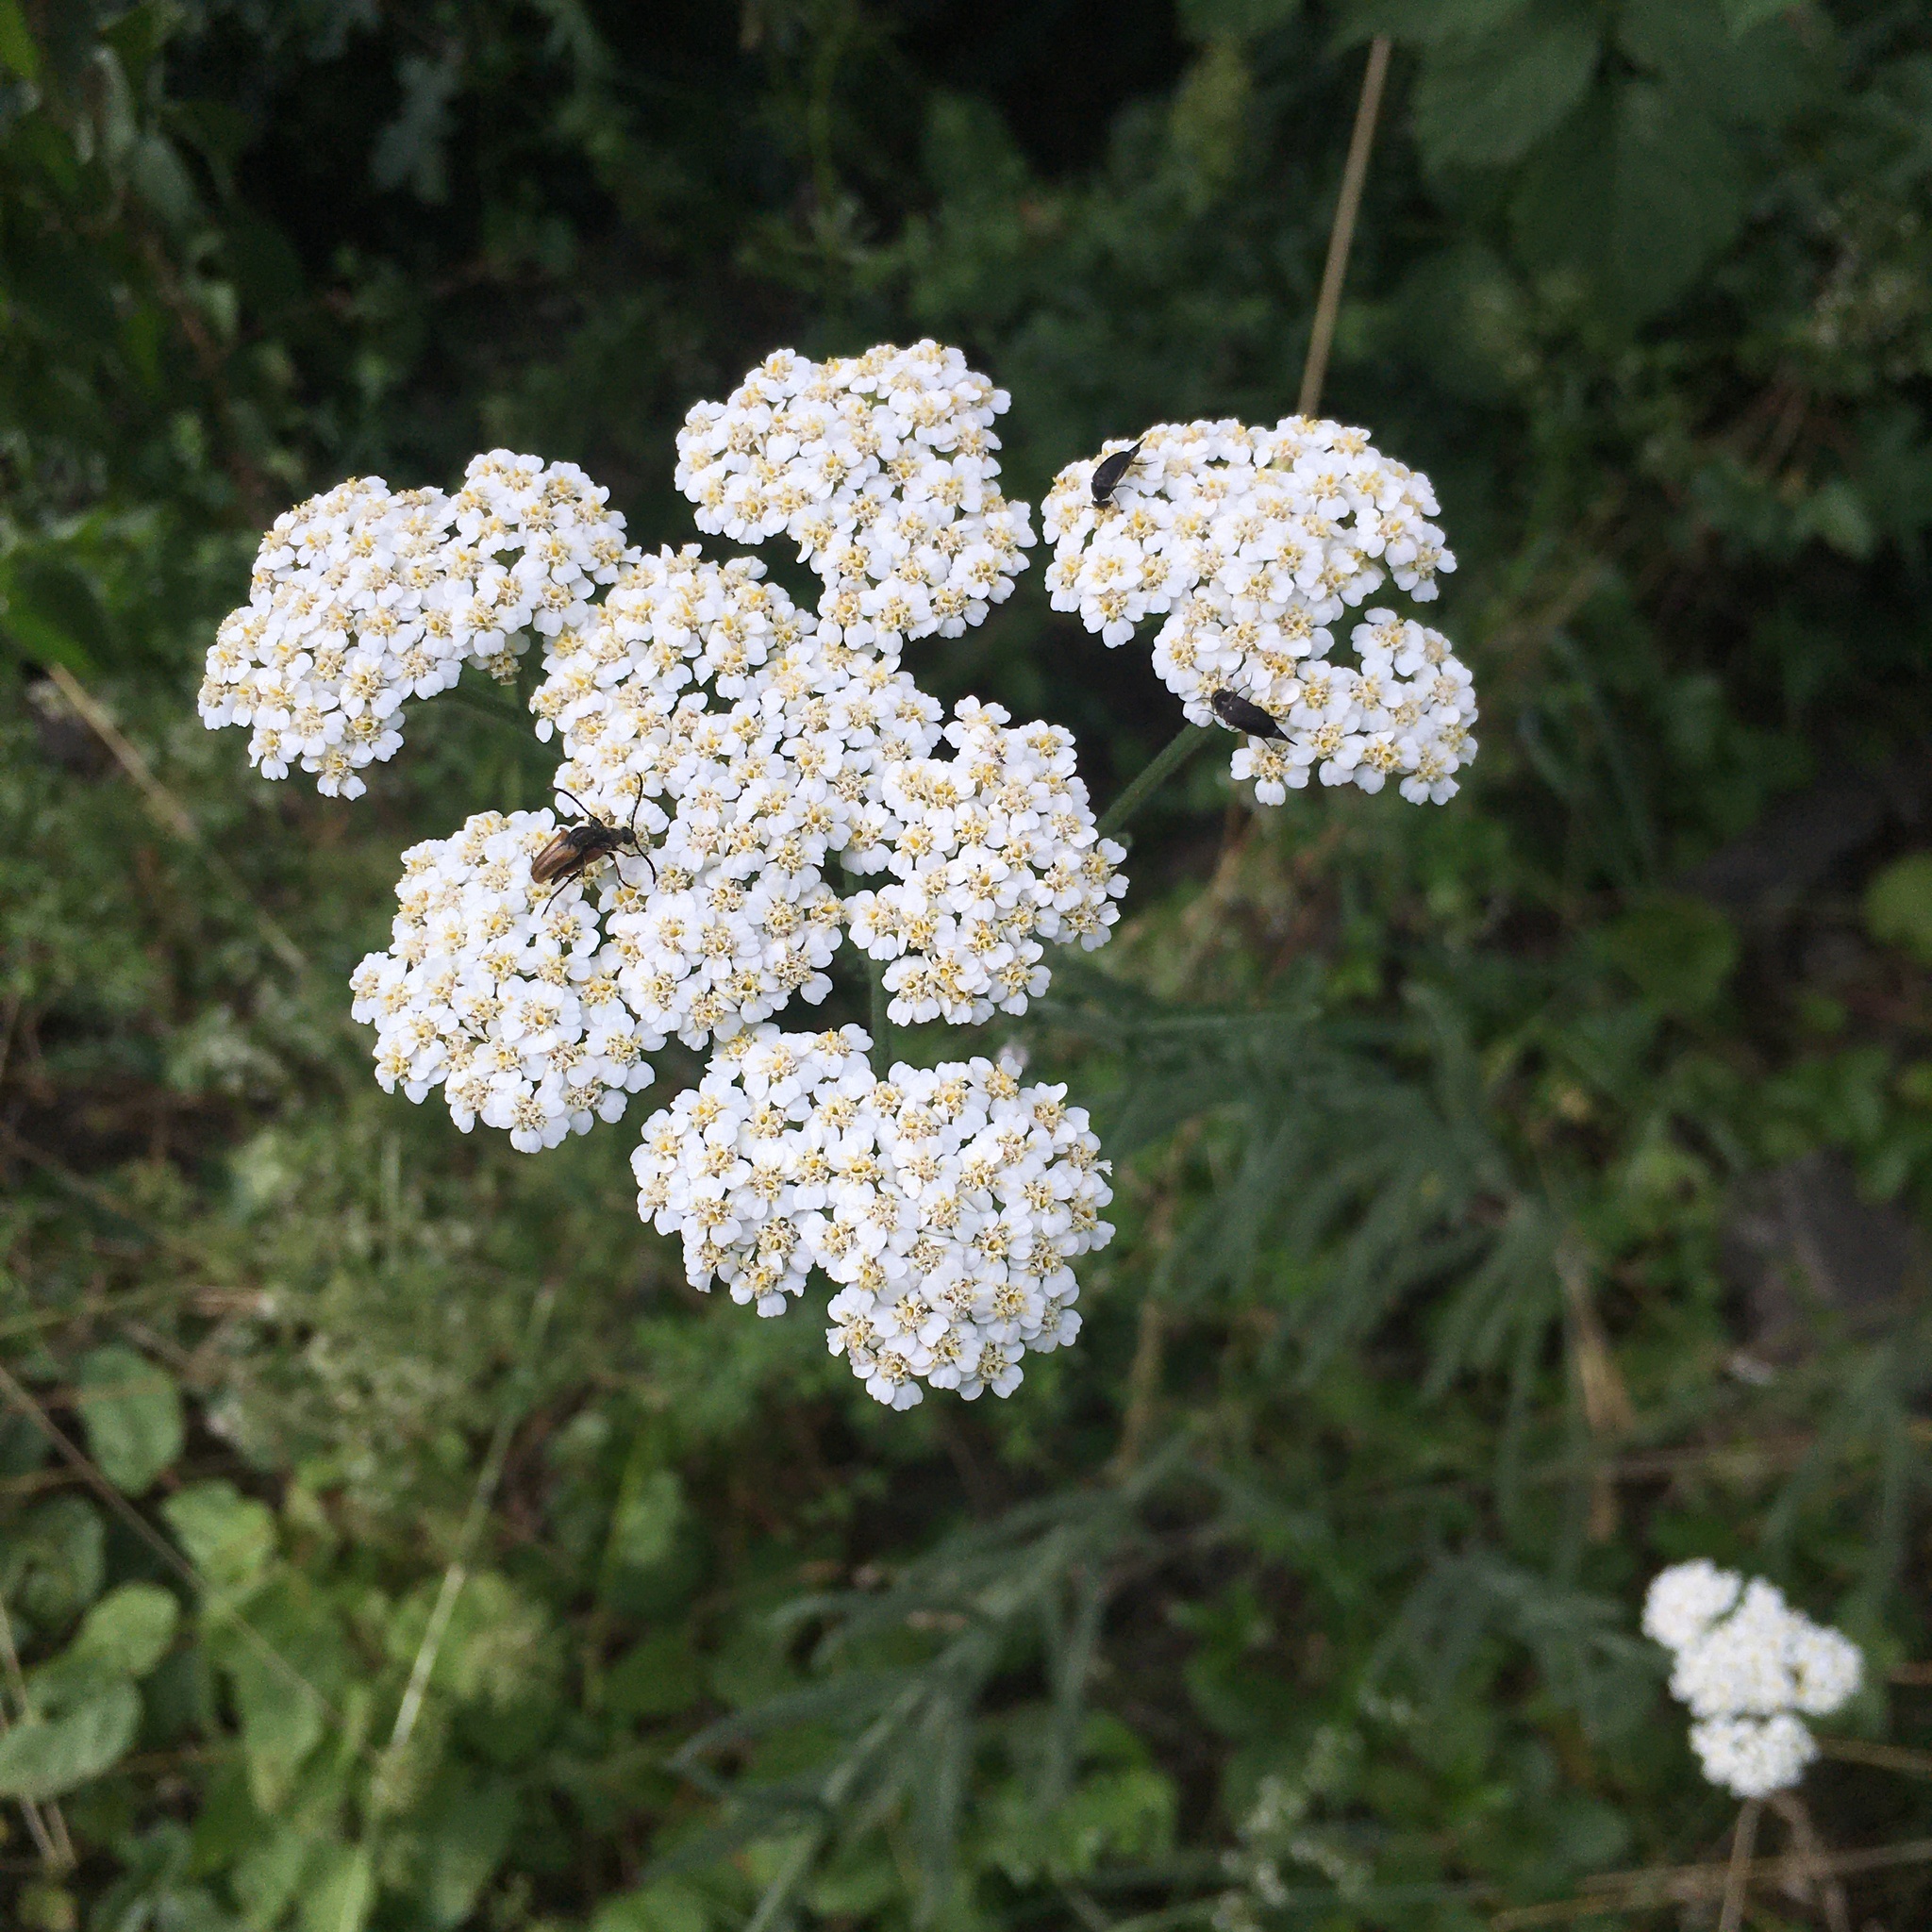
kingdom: Plantae
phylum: Tracheophyta
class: Magnoliopsida
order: Asterales
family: Asteraceae
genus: Achillea
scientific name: Achillea millefolium
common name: Yarrow
